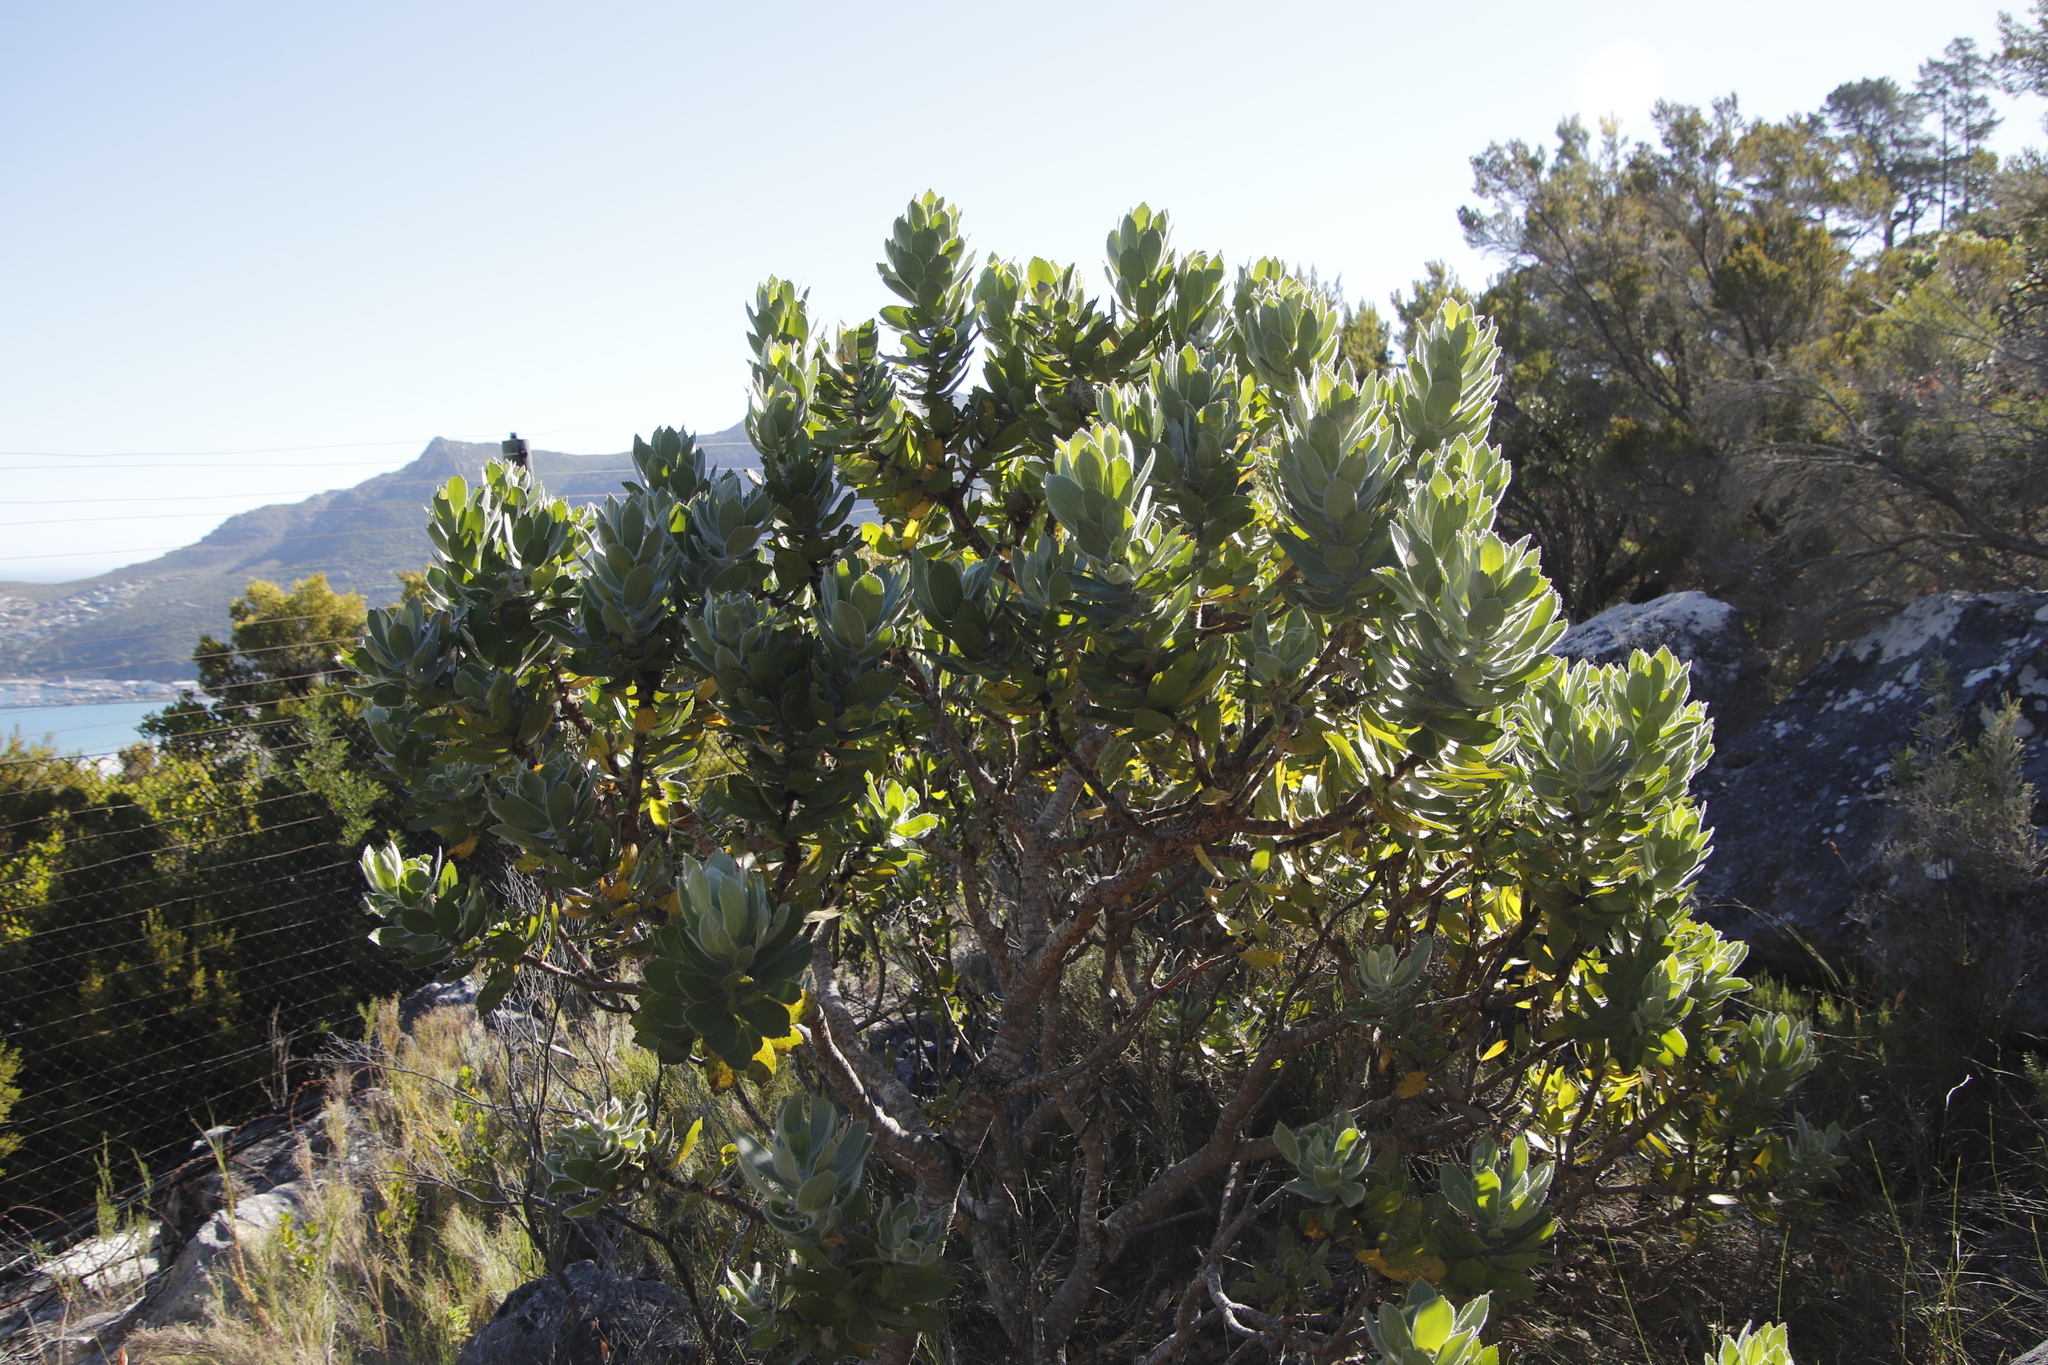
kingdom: Plantae
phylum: Tracheophyta
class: Magnoliopsida
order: Proteales
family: Proteaceae
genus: Leucospermum
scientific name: Leucospermum conocarpodendron
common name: Tree pincushion
